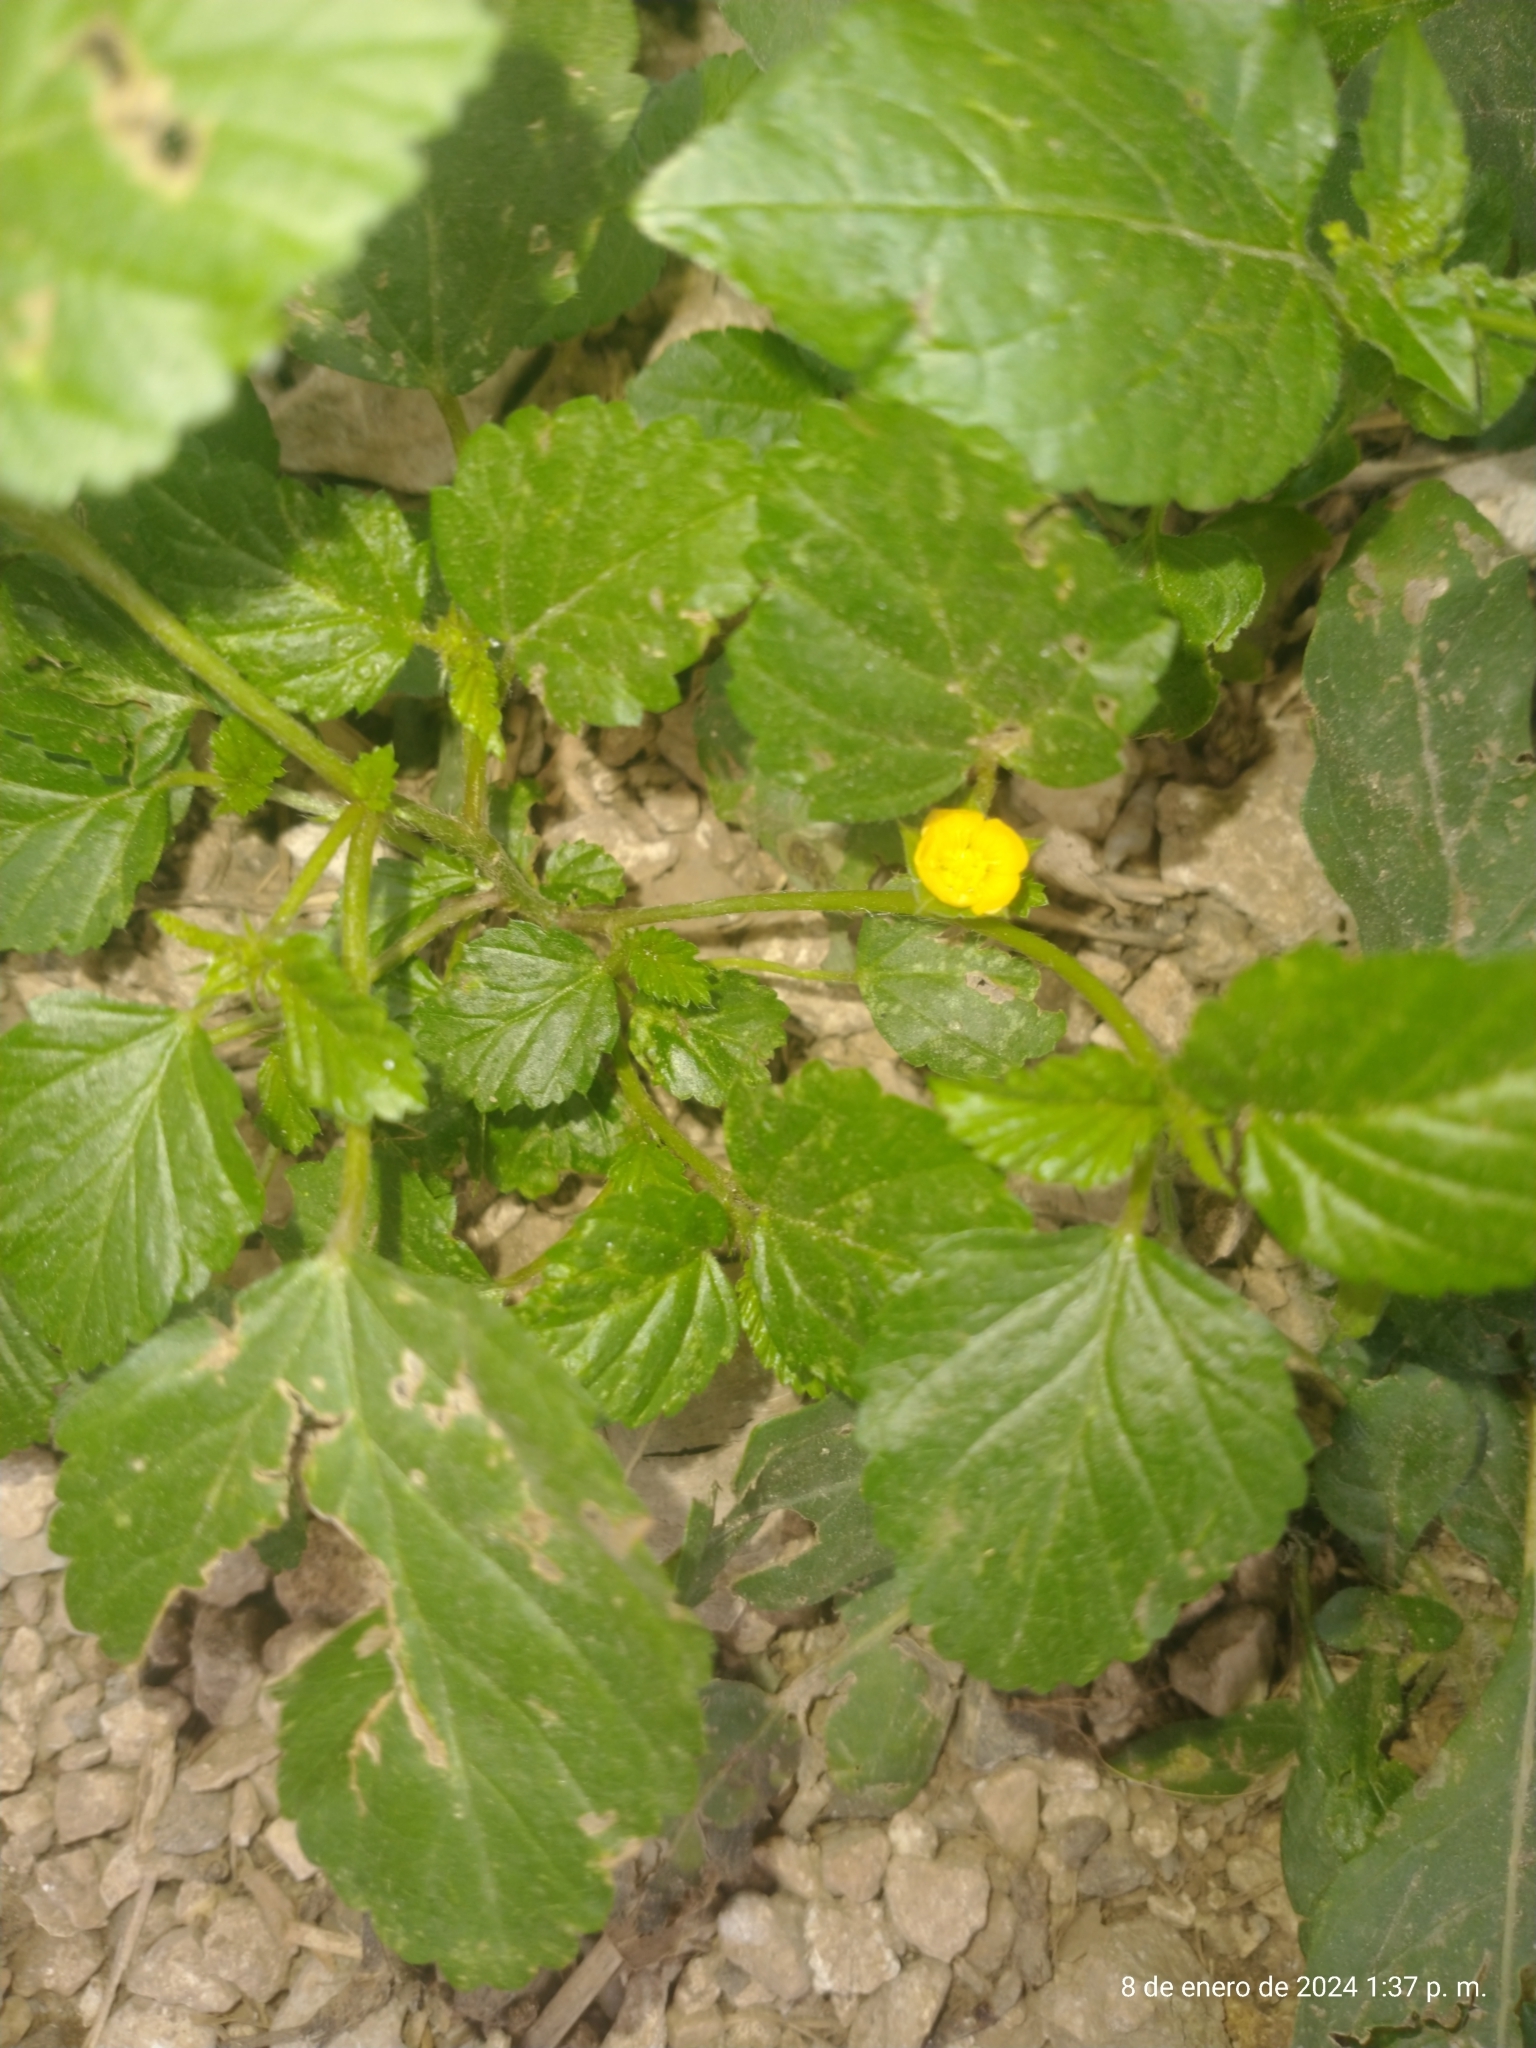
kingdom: Plantae
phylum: Tracheophyta
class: Magnoliopsida
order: Malvales
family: Malvaceae
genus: Malvastrum
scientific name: Malvastrum corchorifolium
